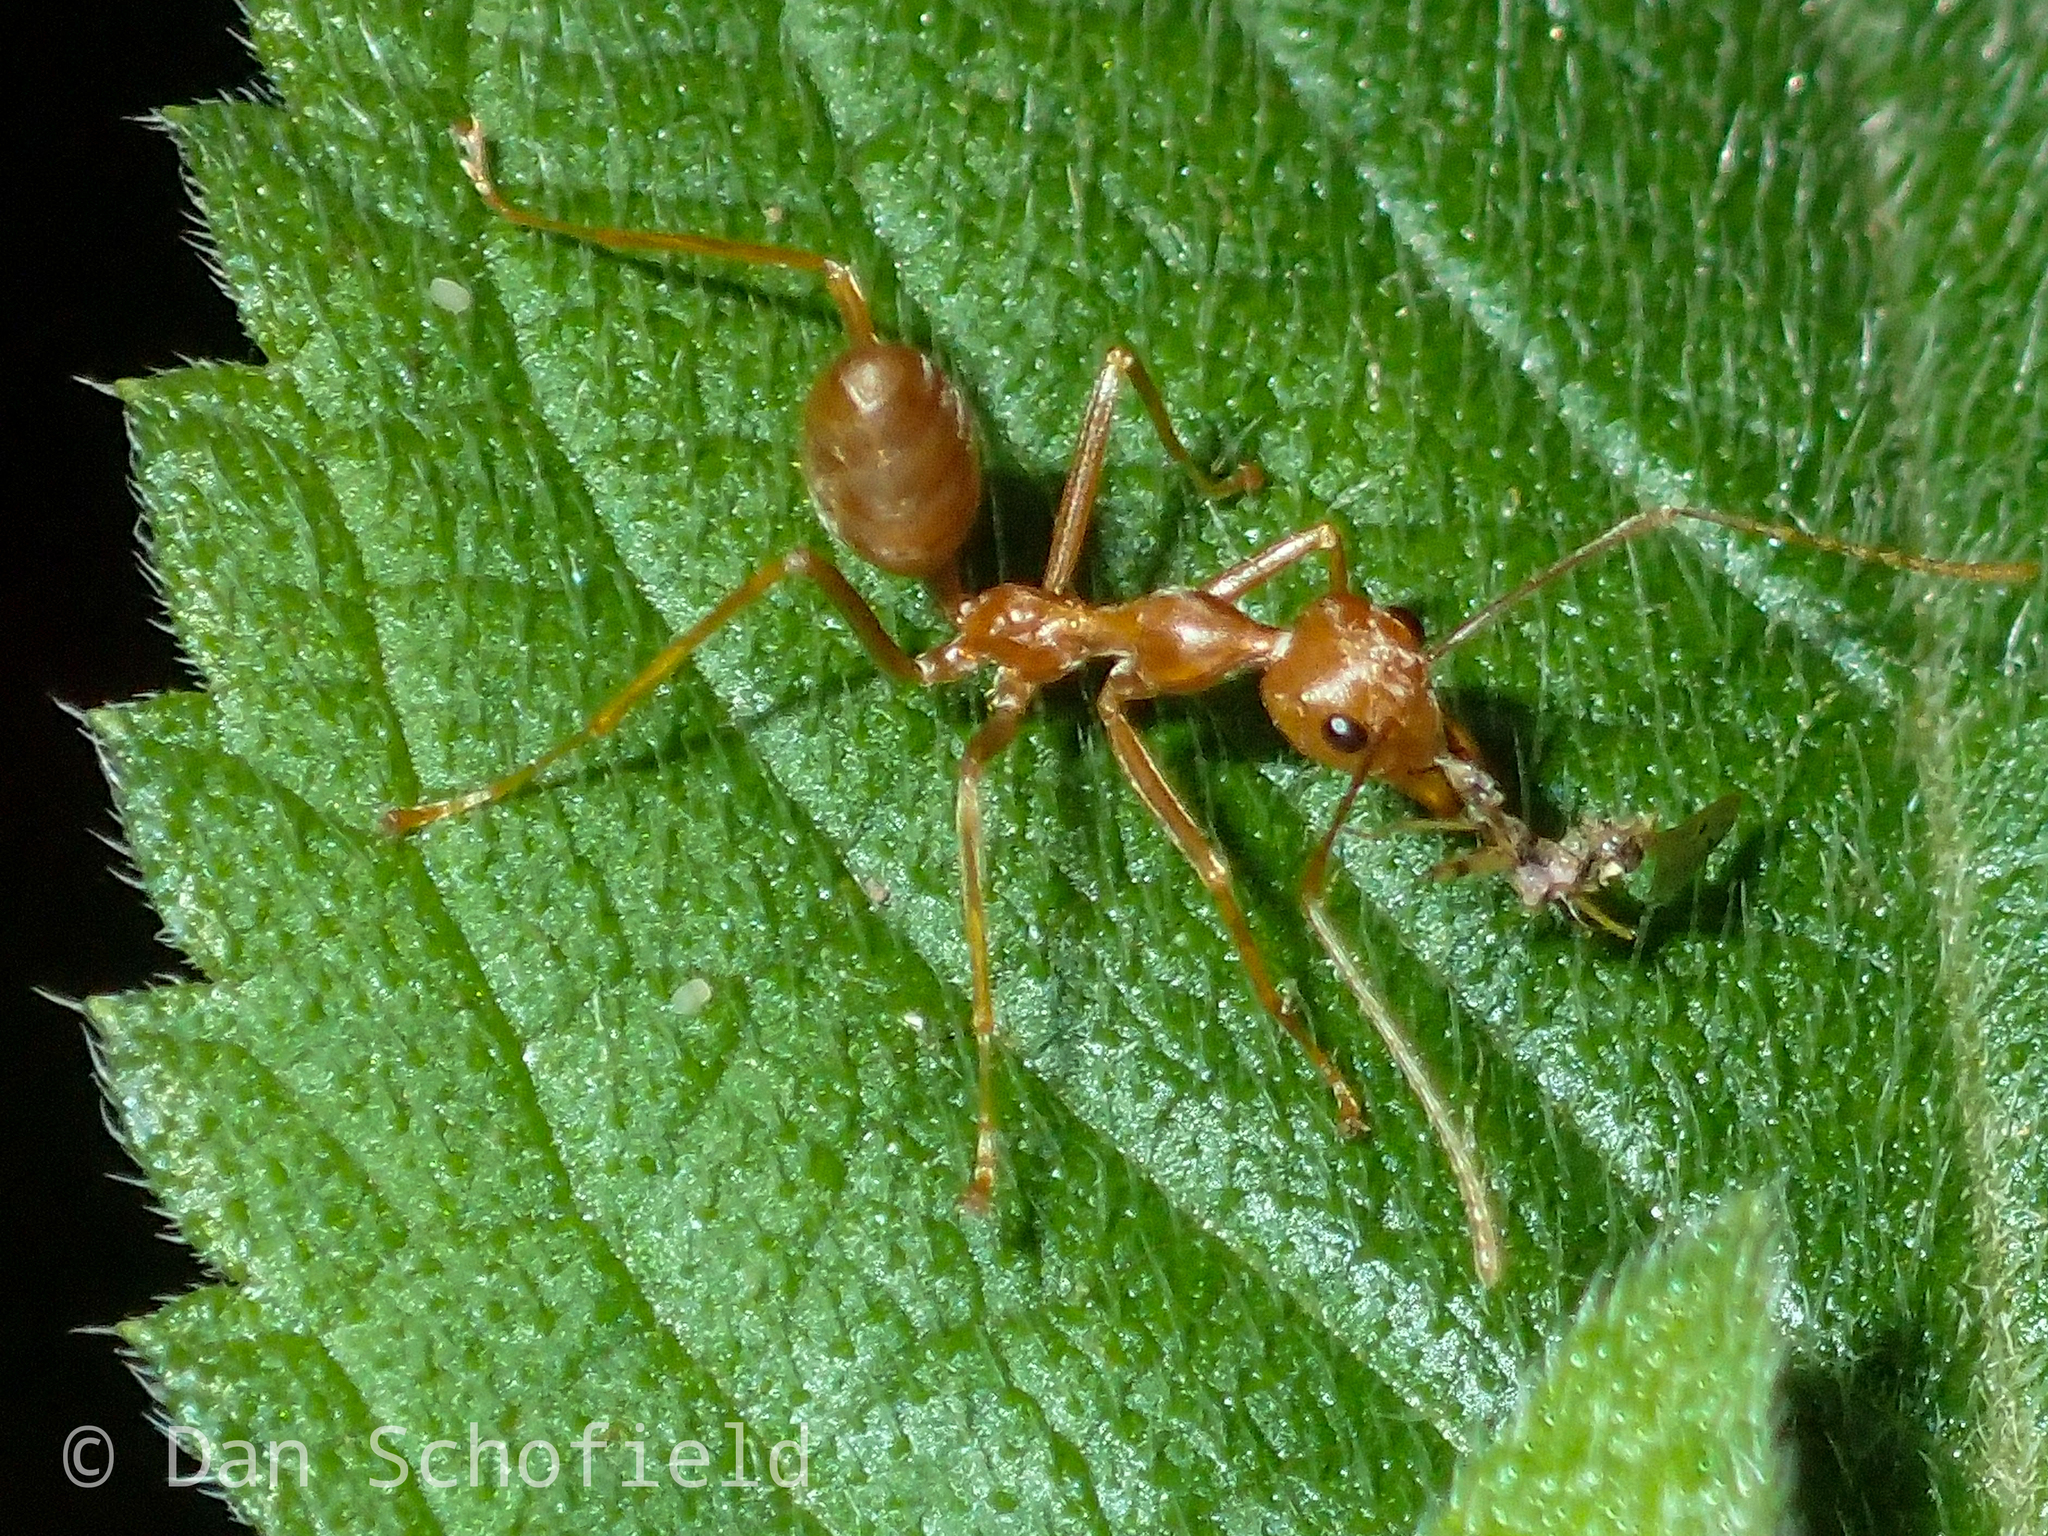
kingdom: Animalia
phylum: Arthropoda
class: Insecta
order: Hymenoptera
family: Formicidae
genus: Oecophylla
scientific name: Oecophylla smaragdina
